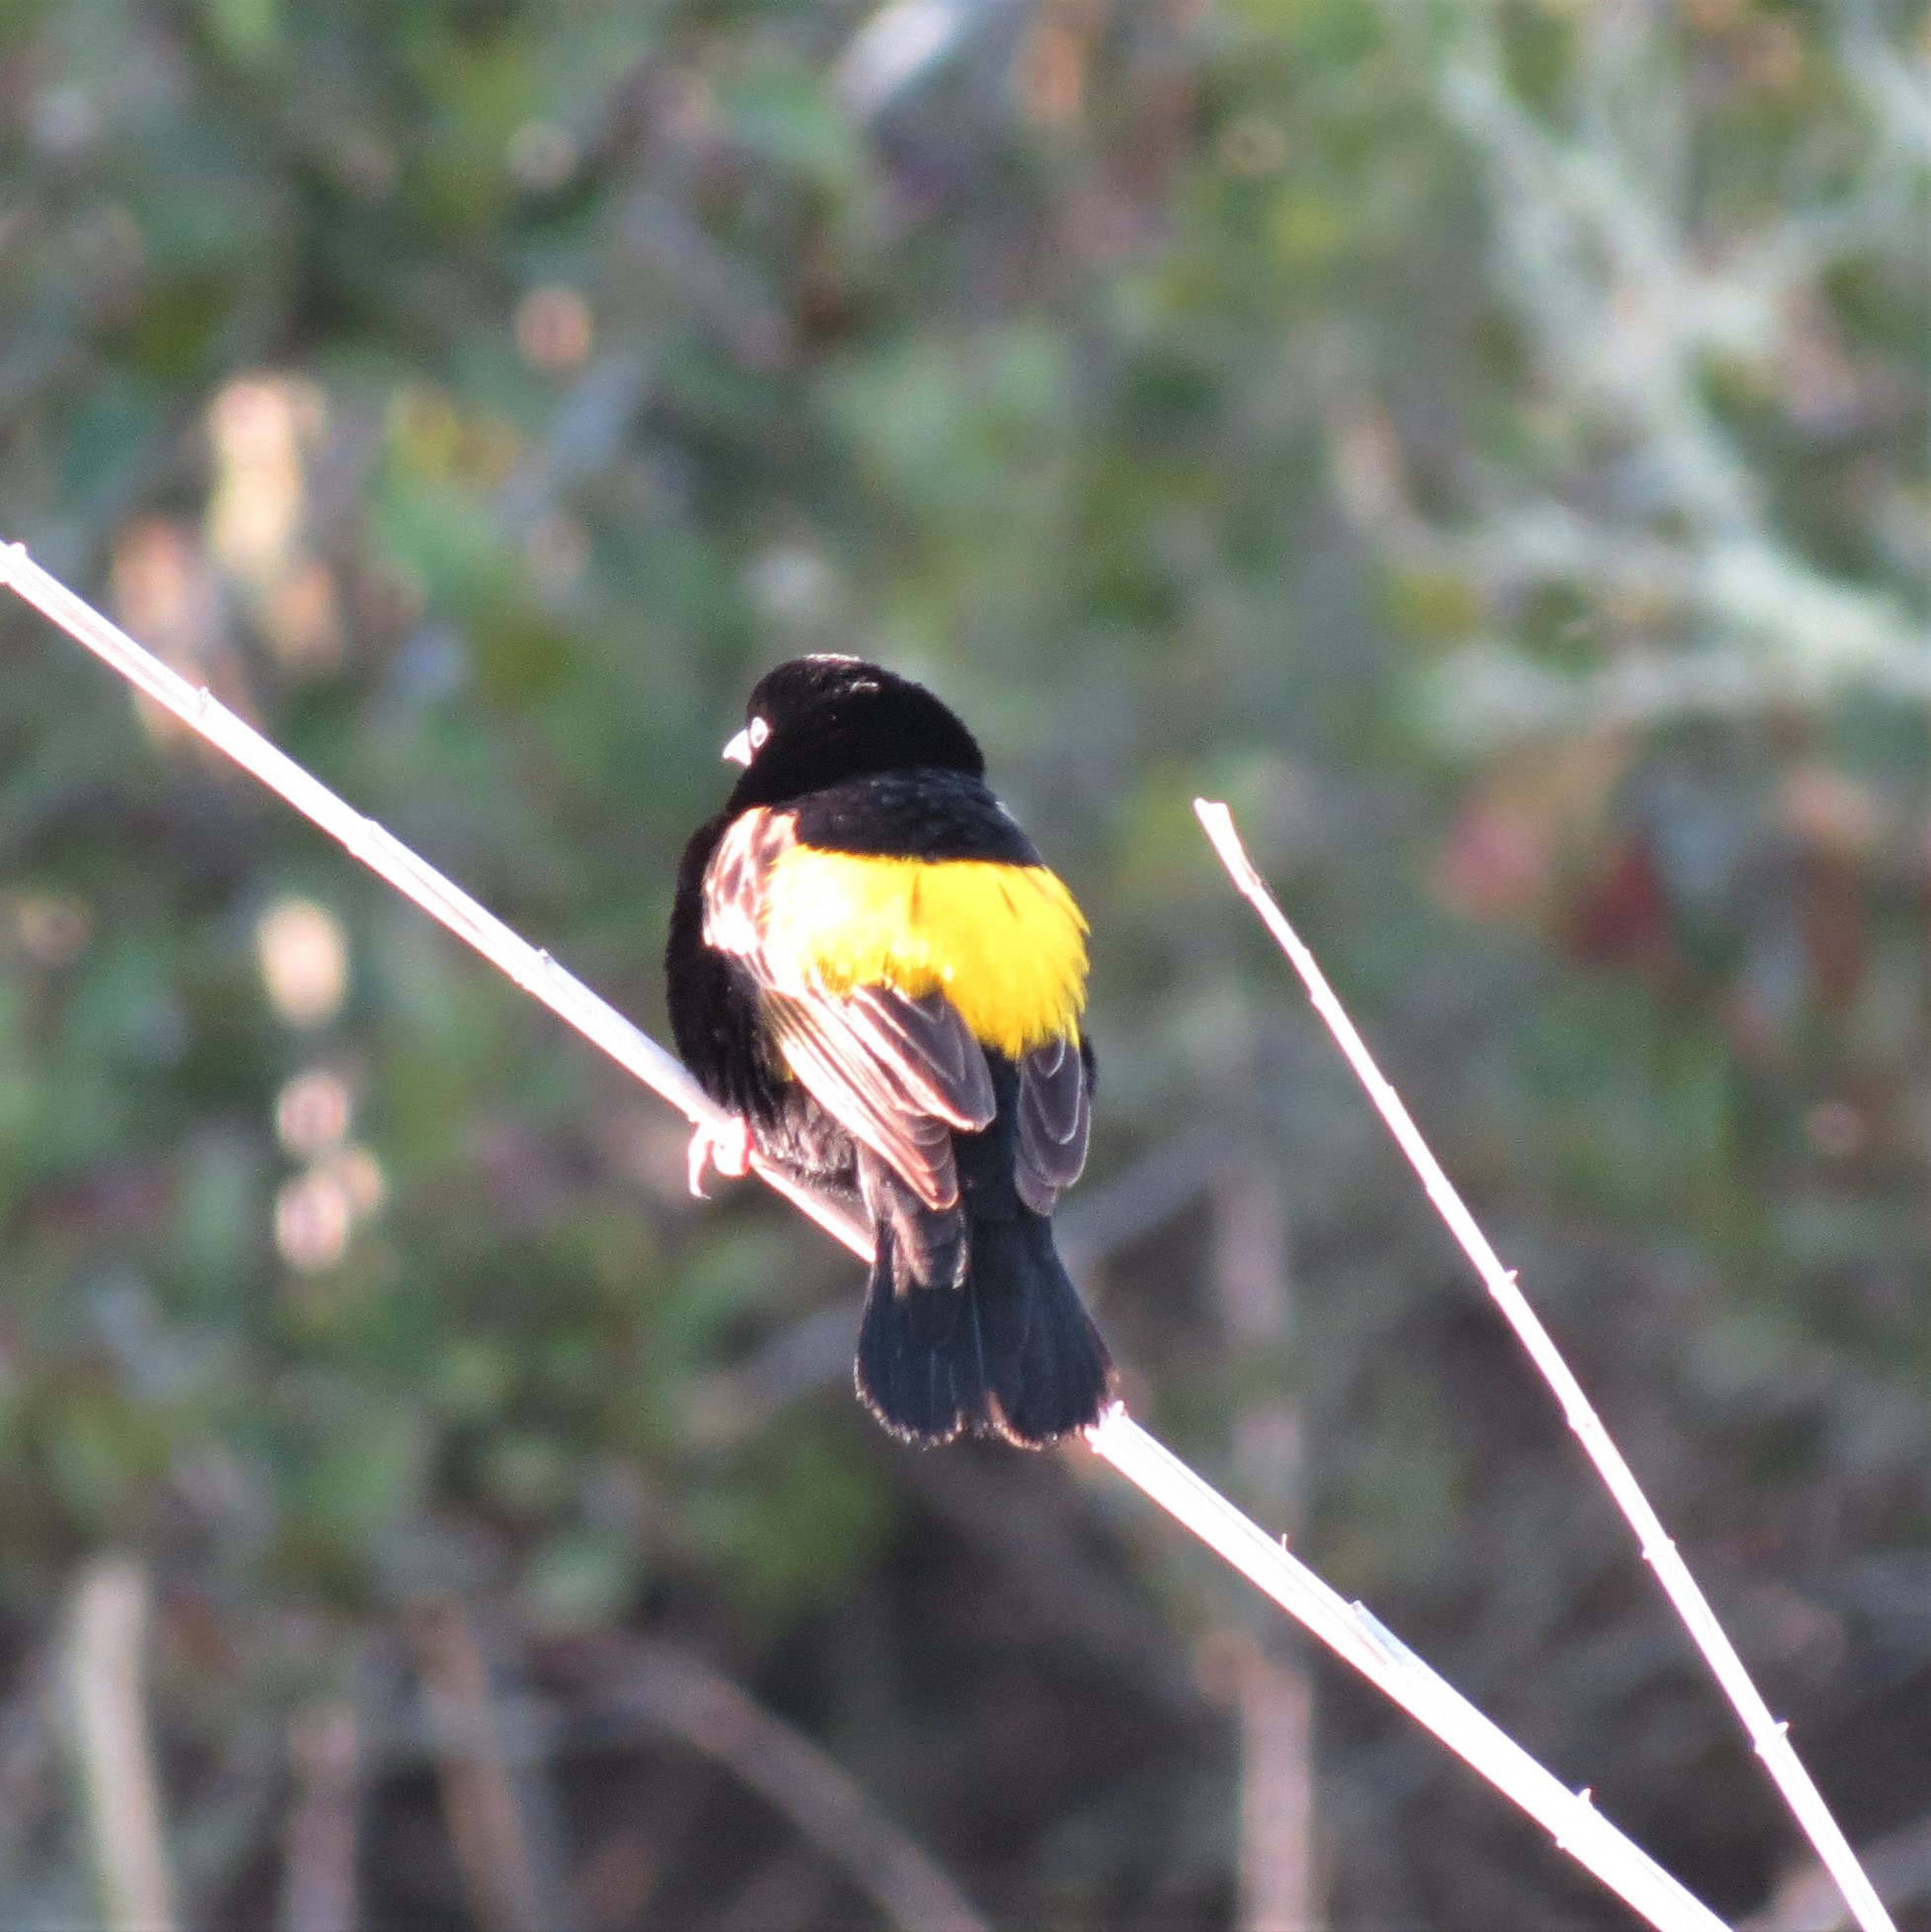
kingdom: Animalia
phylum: Chordata
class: Aves
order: Passeriformes
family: Ploceidae
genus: Euplectes
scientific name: Euplectes capensis
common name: Yellow bishop
